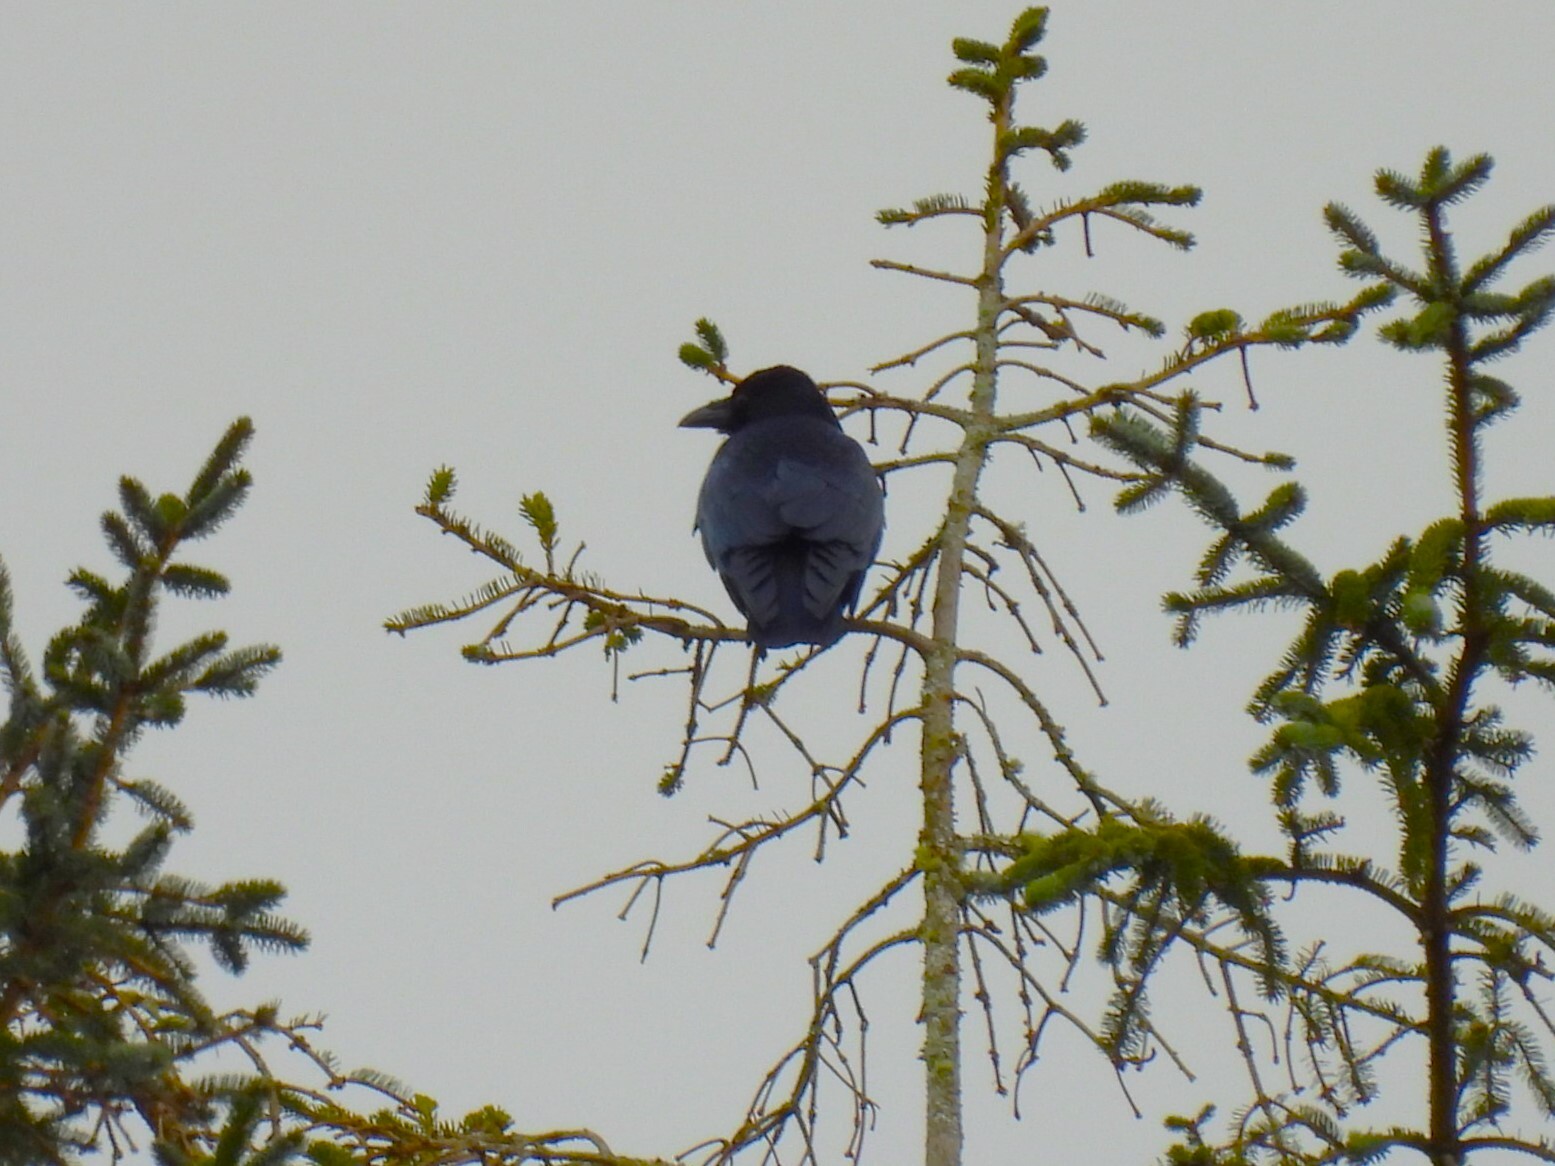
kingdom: Animalia
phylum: Chordata
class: Aves
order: Passeriformes
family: Corvidae
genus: Corvus
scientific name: Corvus corone
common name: Carrion crow
